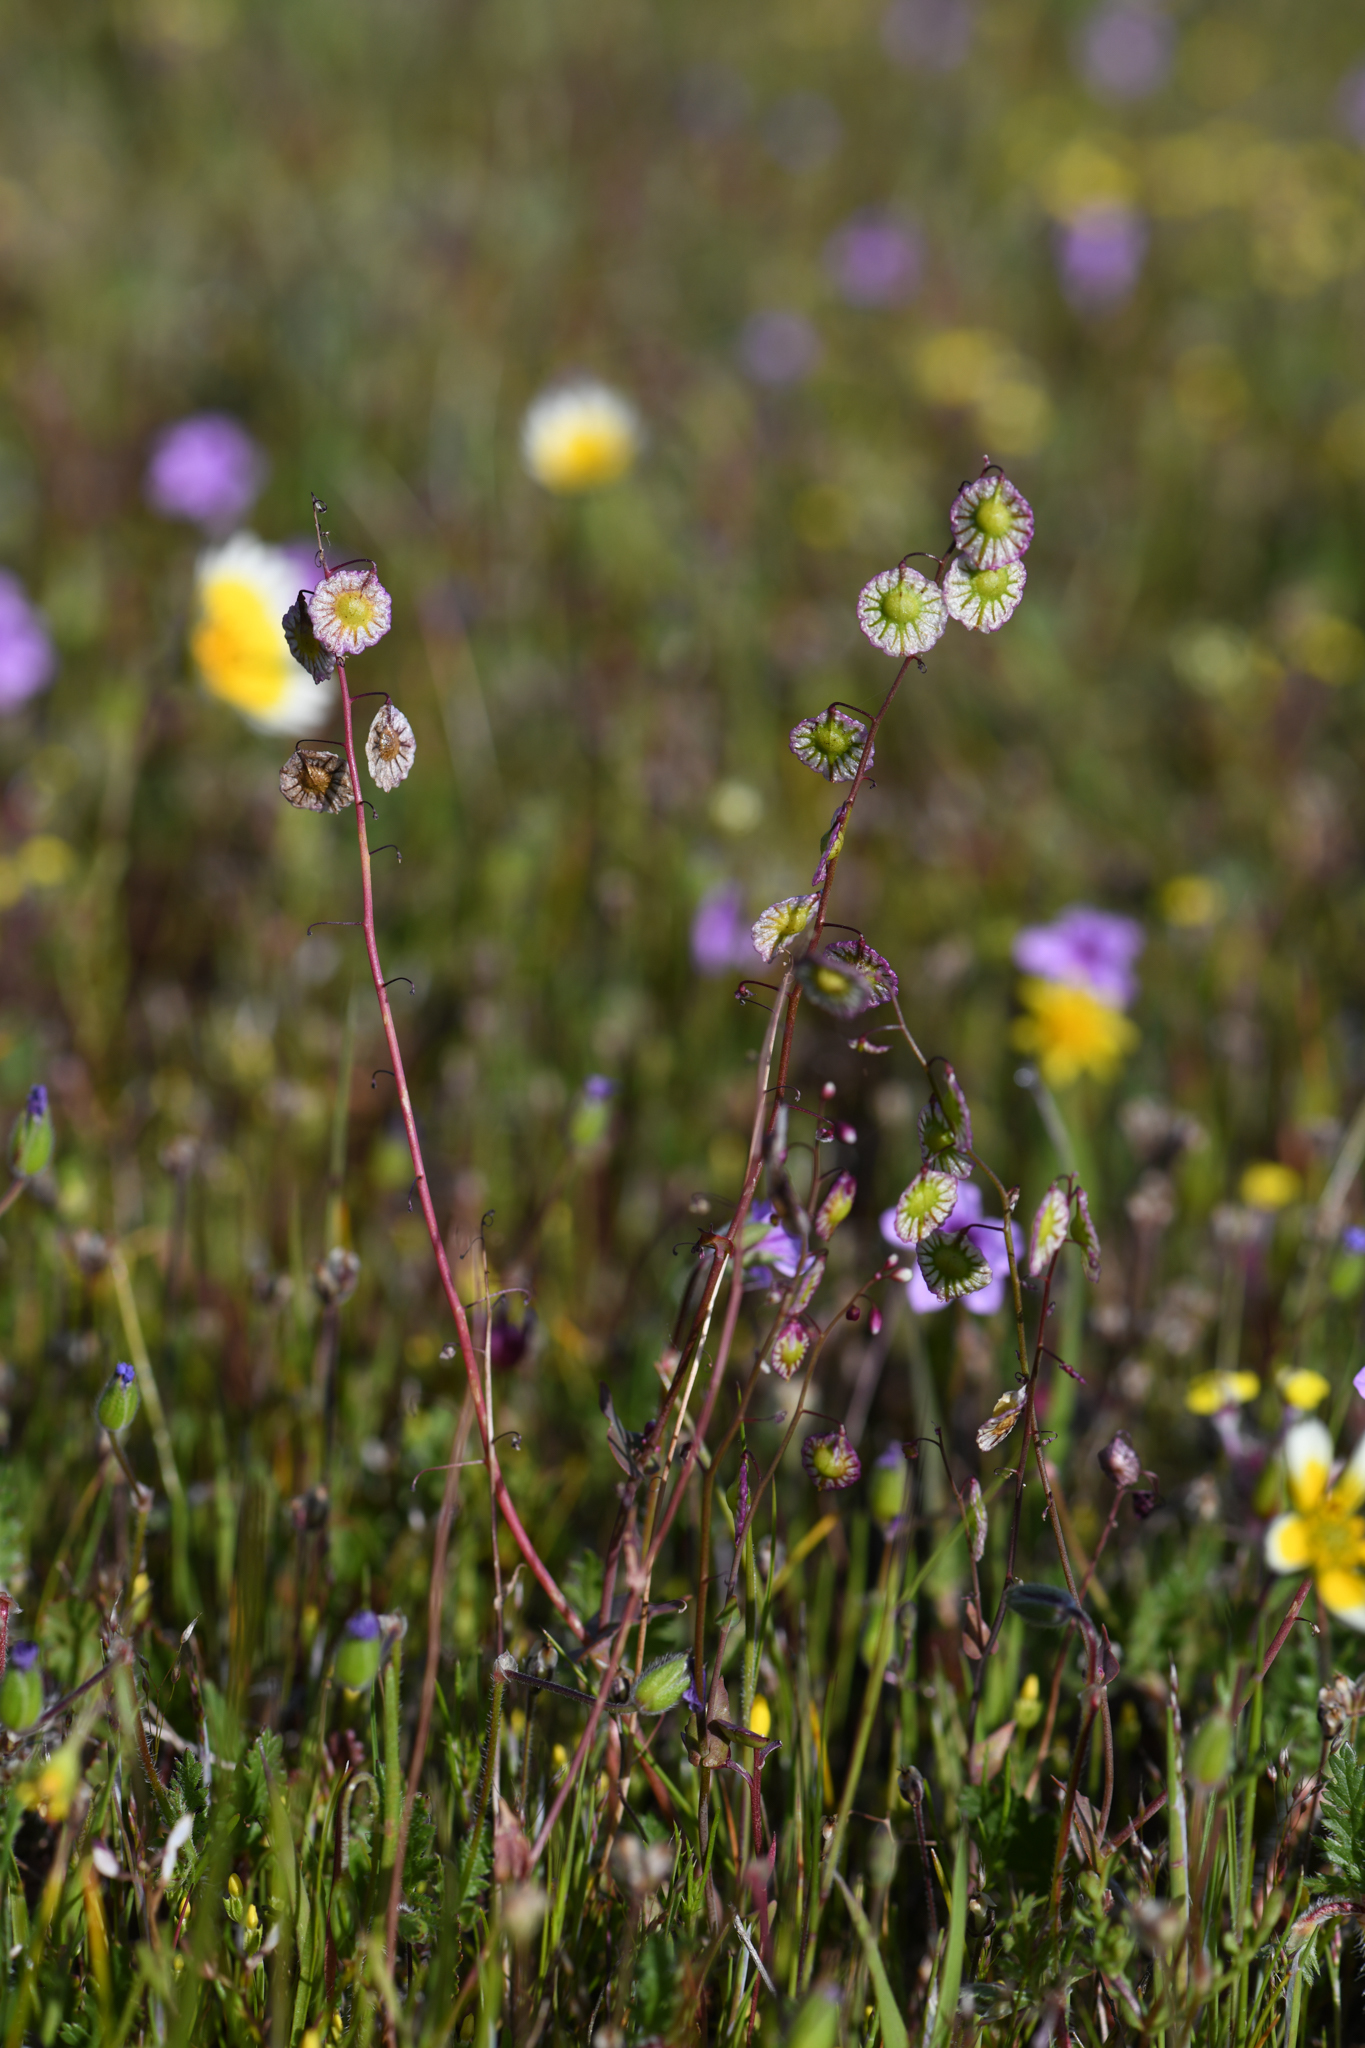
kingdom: Plantae
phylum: Tracheophyta
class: Magnoliopsida
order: Brassicales
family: Brassicaceae
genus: Thysanocarpus
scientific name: Thysanocarpus radians
